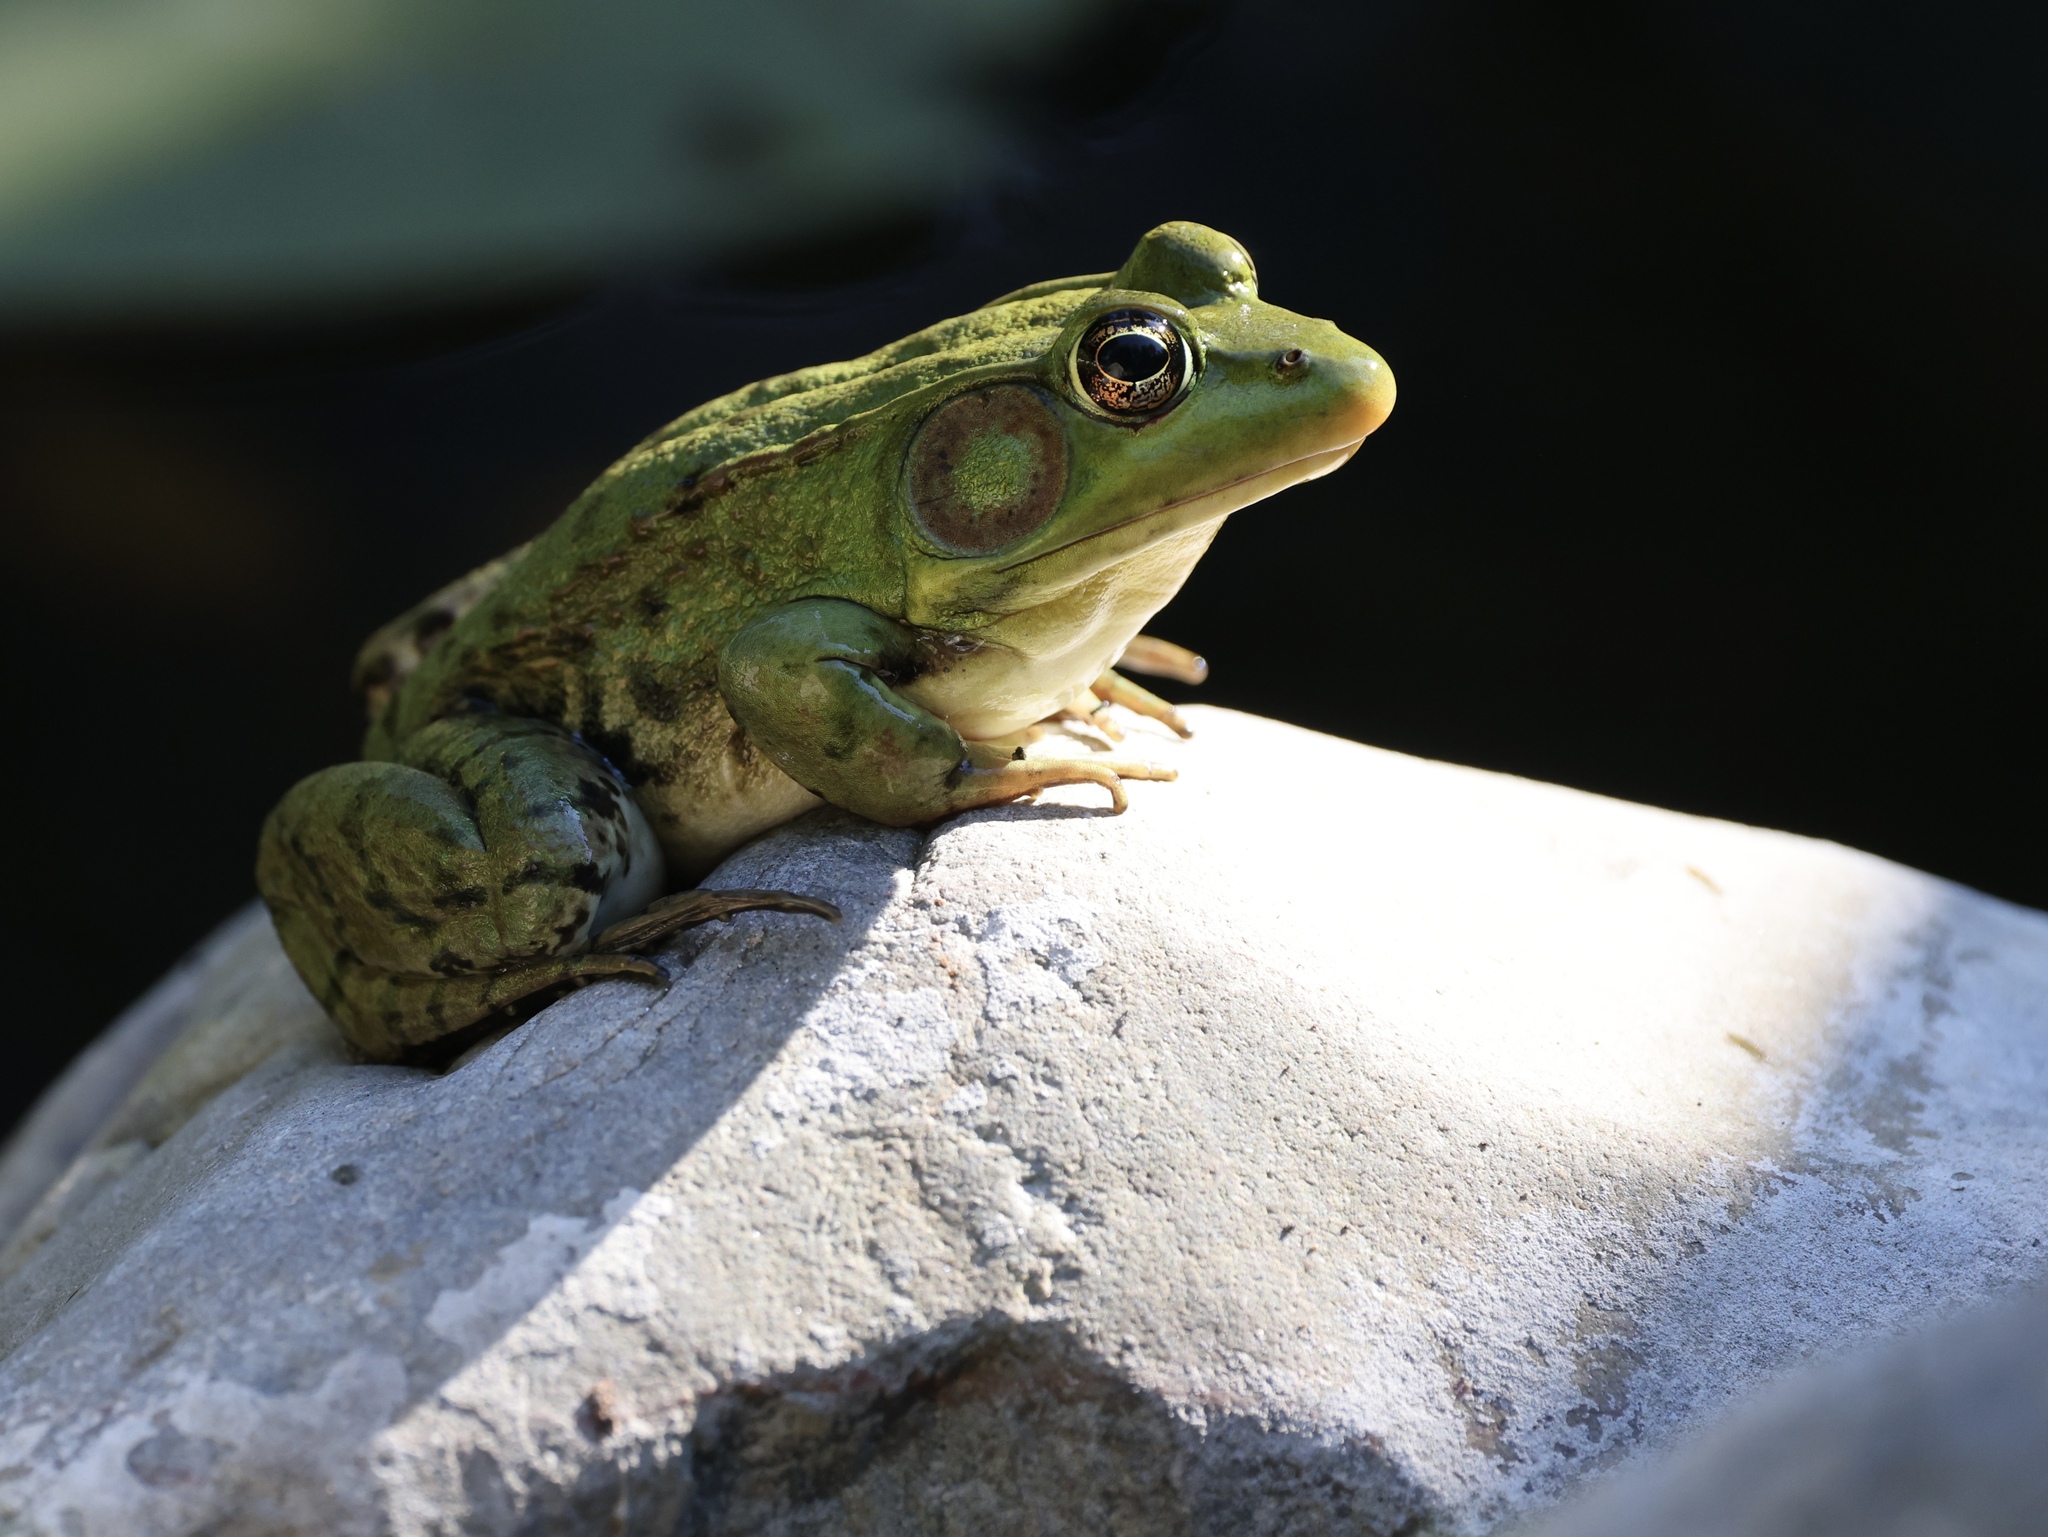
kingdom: Animalia
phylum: Chordata
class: Amphibia
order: Anura
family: Ranidae
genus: Lithobates
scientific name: Lithobates clamitans
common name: Green frog
